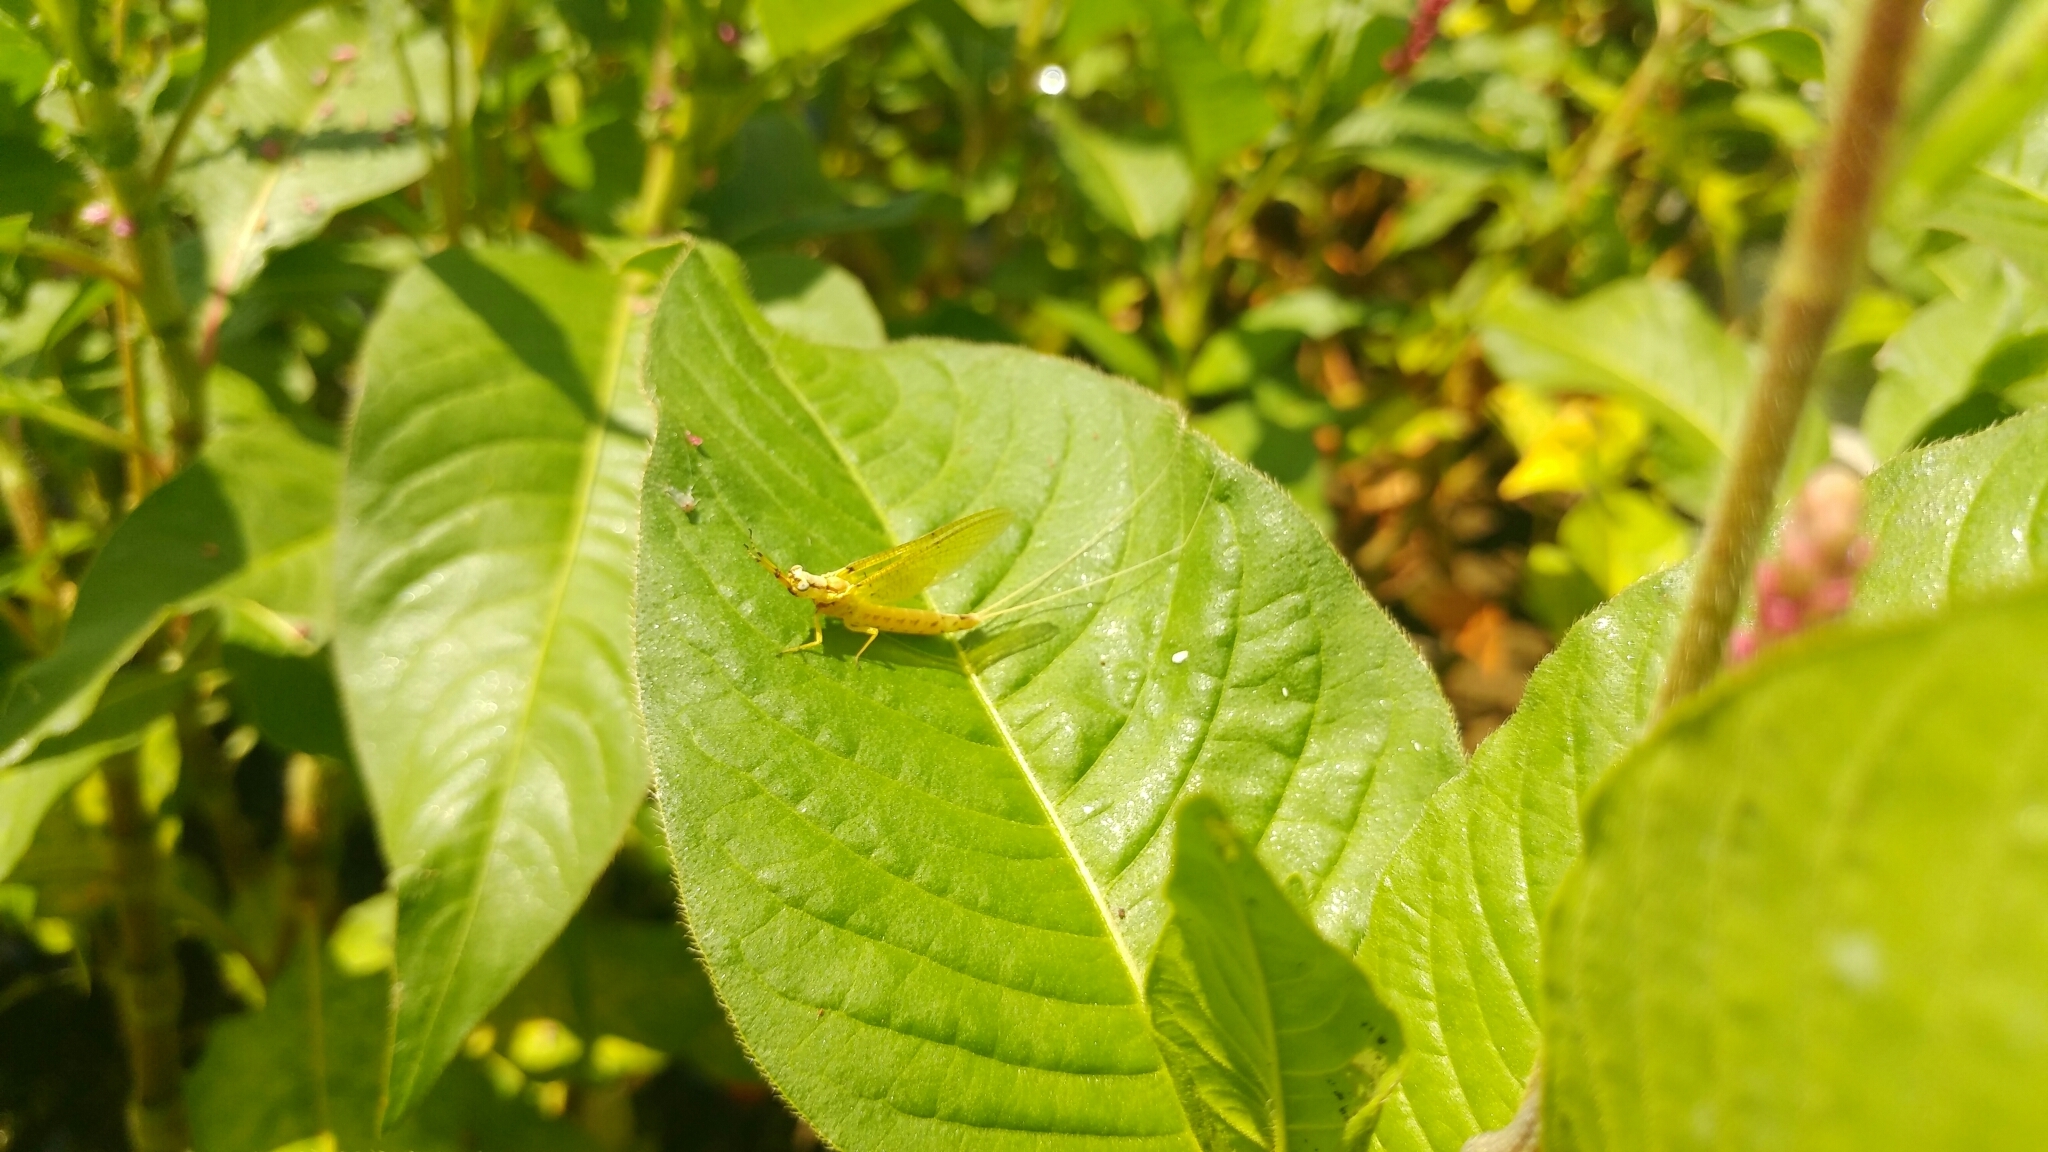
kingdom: Animalia
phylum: Arthropoda
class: Insecta
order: Ephemeroptera
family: Ephemeridae
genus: Hexagenia
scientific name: Hexagenia limbata
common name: Giant mayfly
